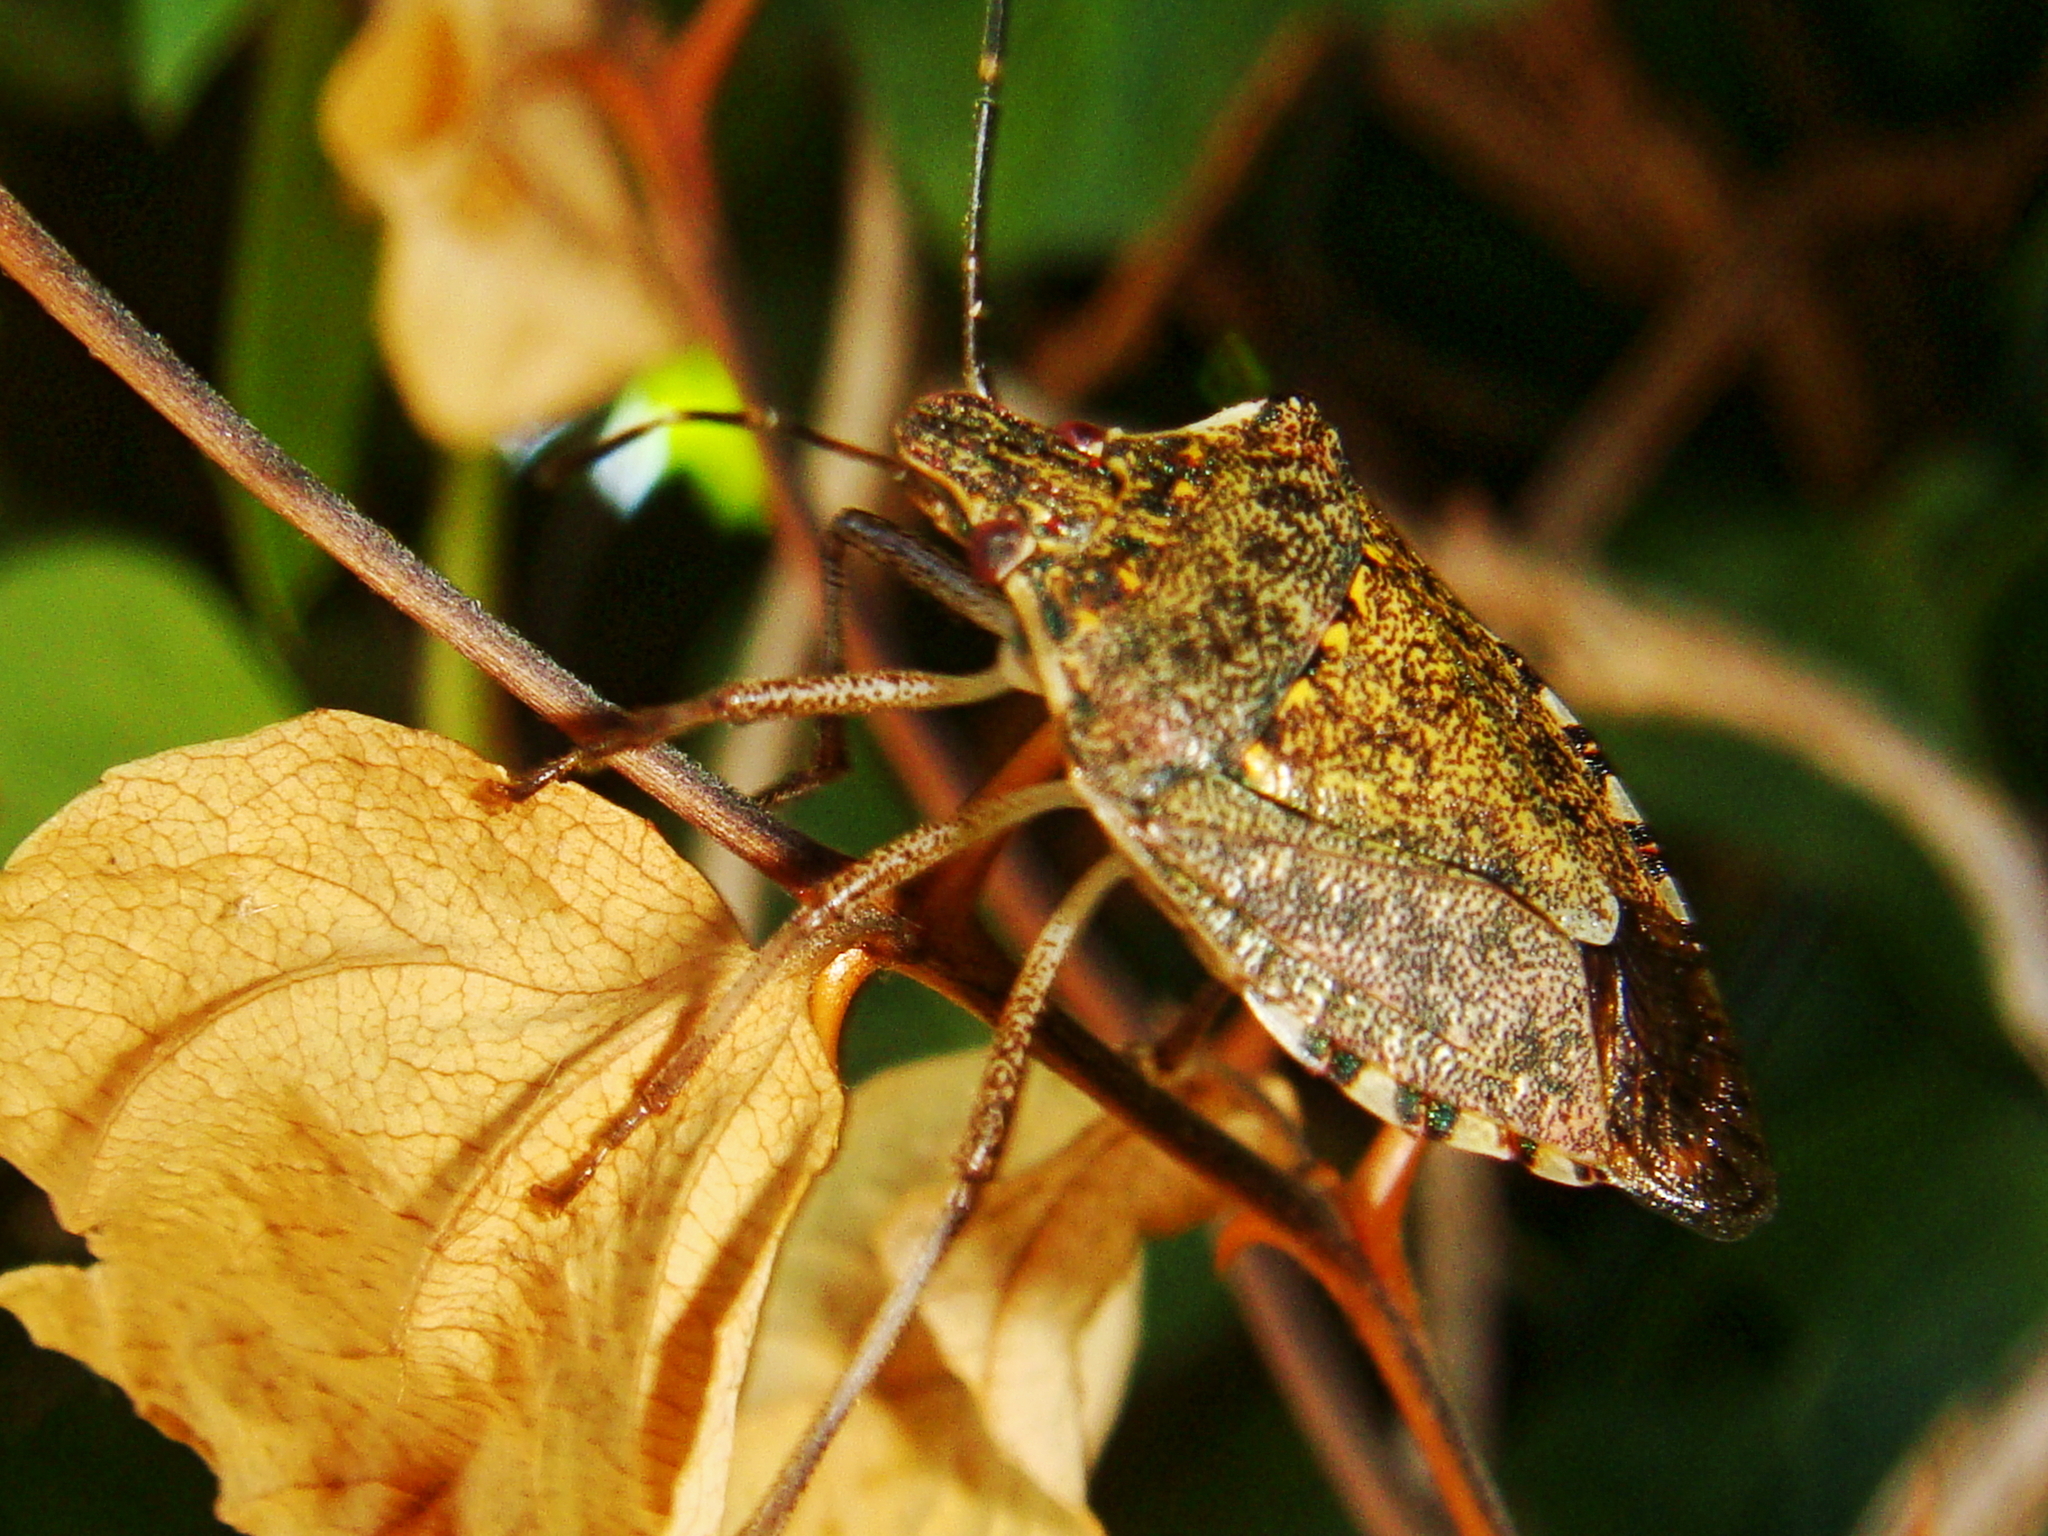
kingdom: Animalia
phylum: Arthropoda
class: Insecta
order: Hemiptera
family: Pentatomidae
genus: Halyomorpha
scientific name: Halyomorpha halys
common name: Brown marmorated stink bug
